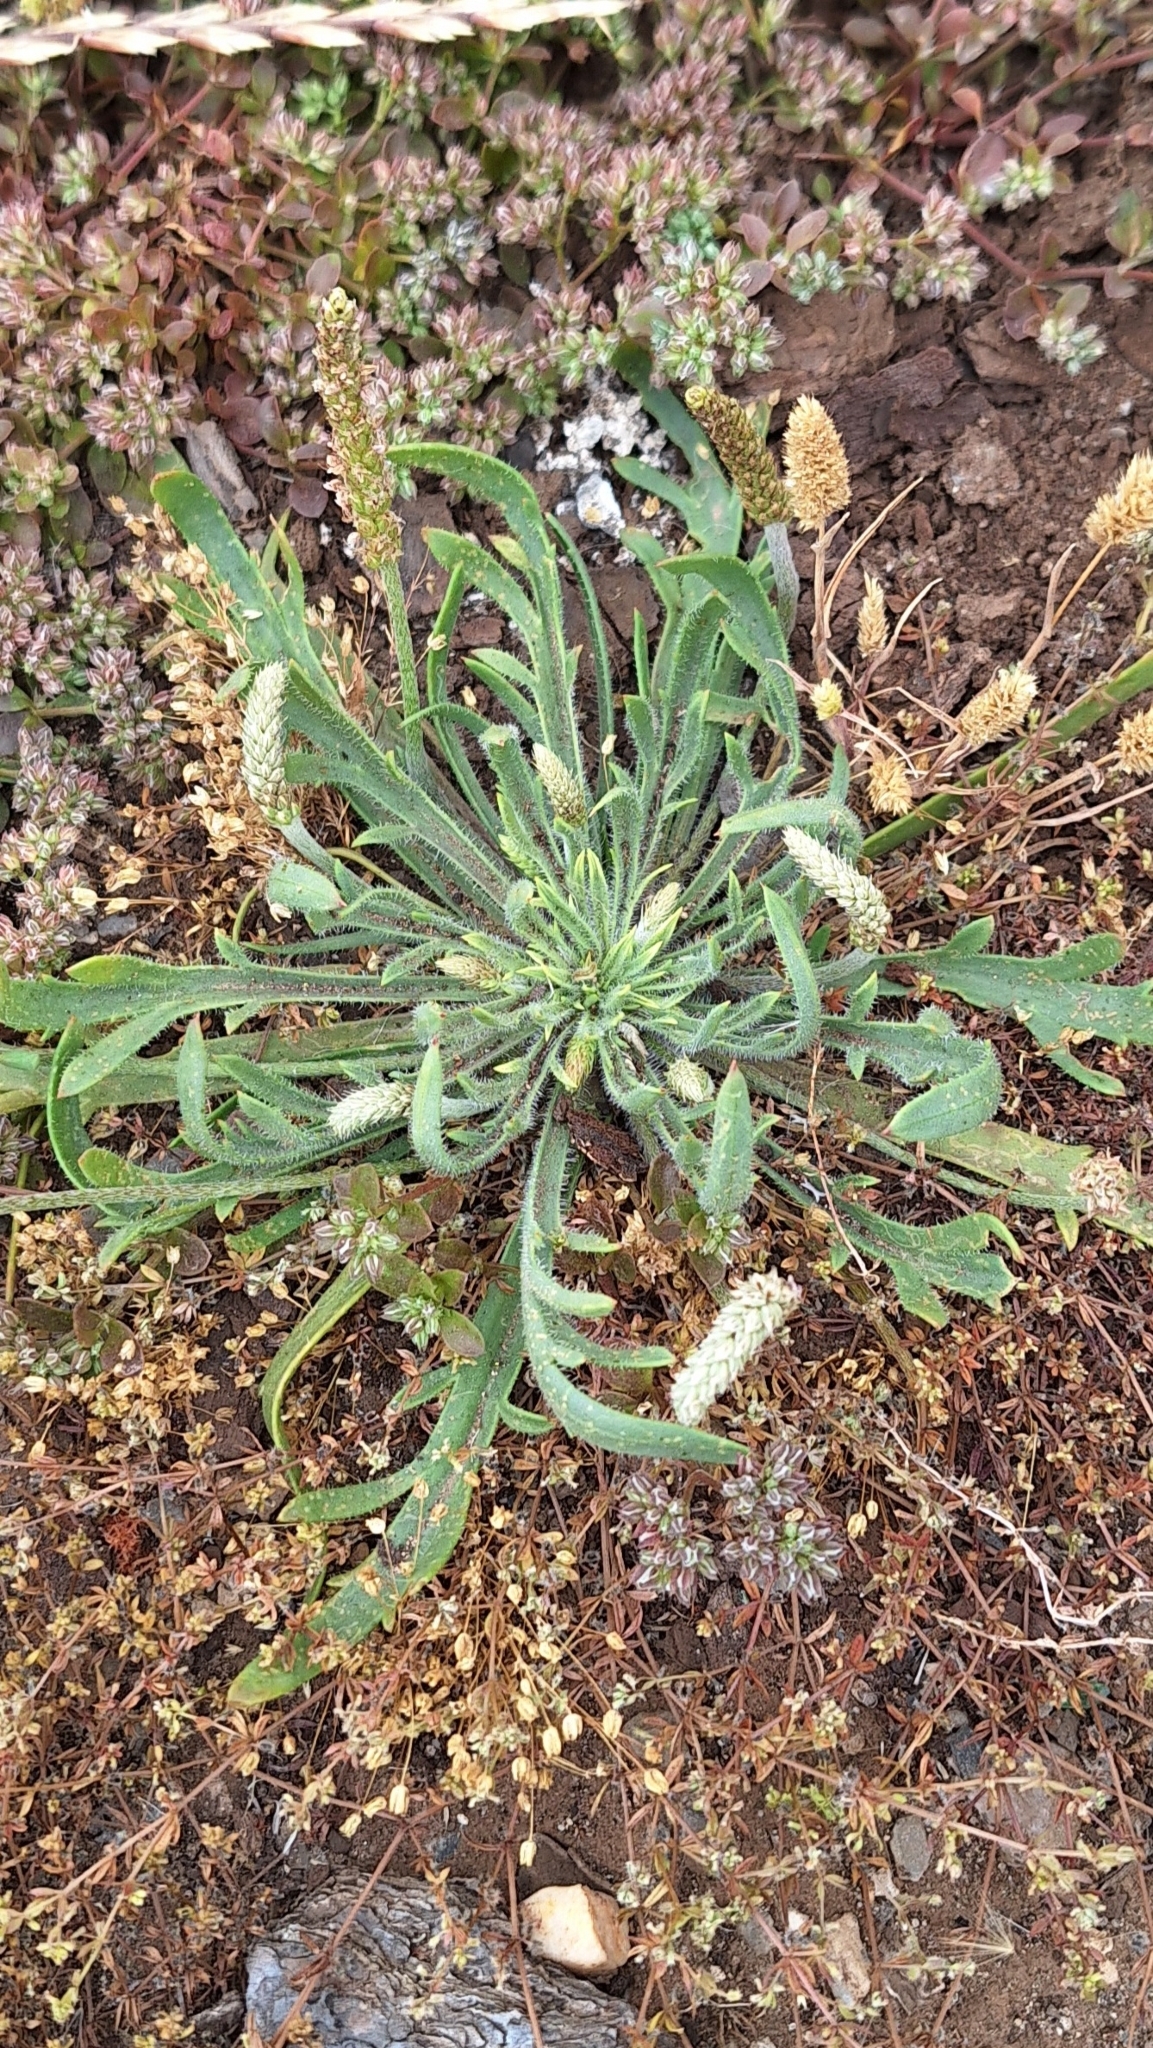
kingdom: Plantae
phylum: Tracheophyta
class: Magnoliopsida
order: Lamiales
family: Plantaginaceae
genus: Plantago
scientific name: Plantago coronopus
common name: Buck's-horn plantain
